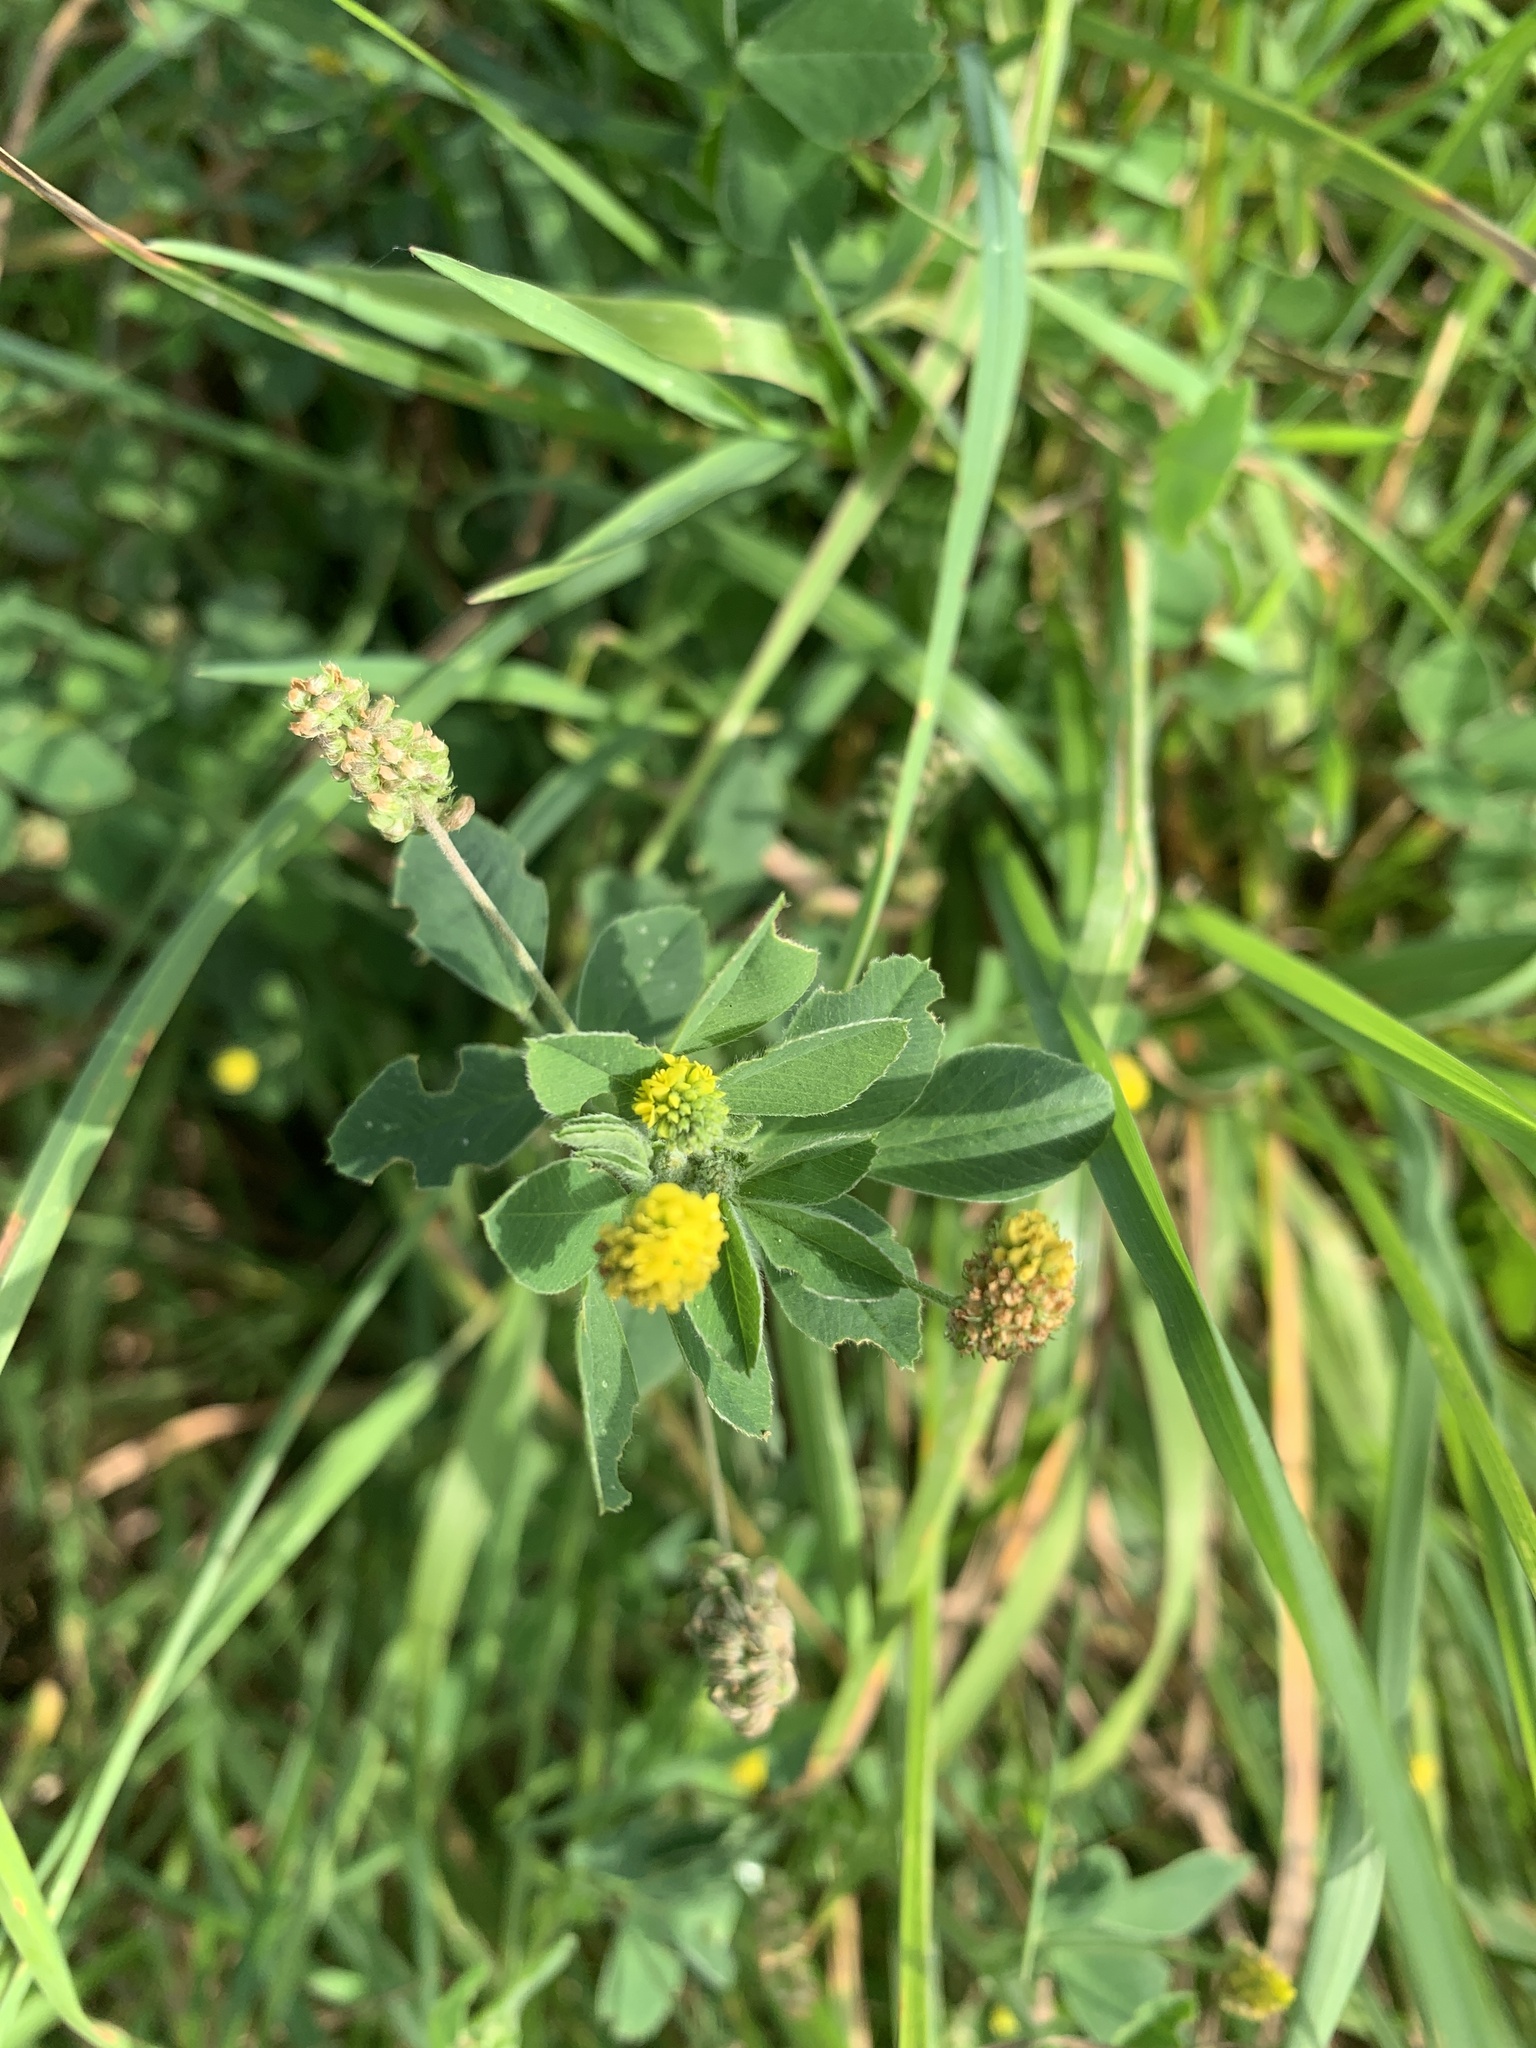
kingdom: Plantae
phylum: Tracheophyta
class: Magnoliopsida
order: Fabales
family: Fabaceae
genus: Medicago
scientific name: Medicago lupulina
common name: Black medick
